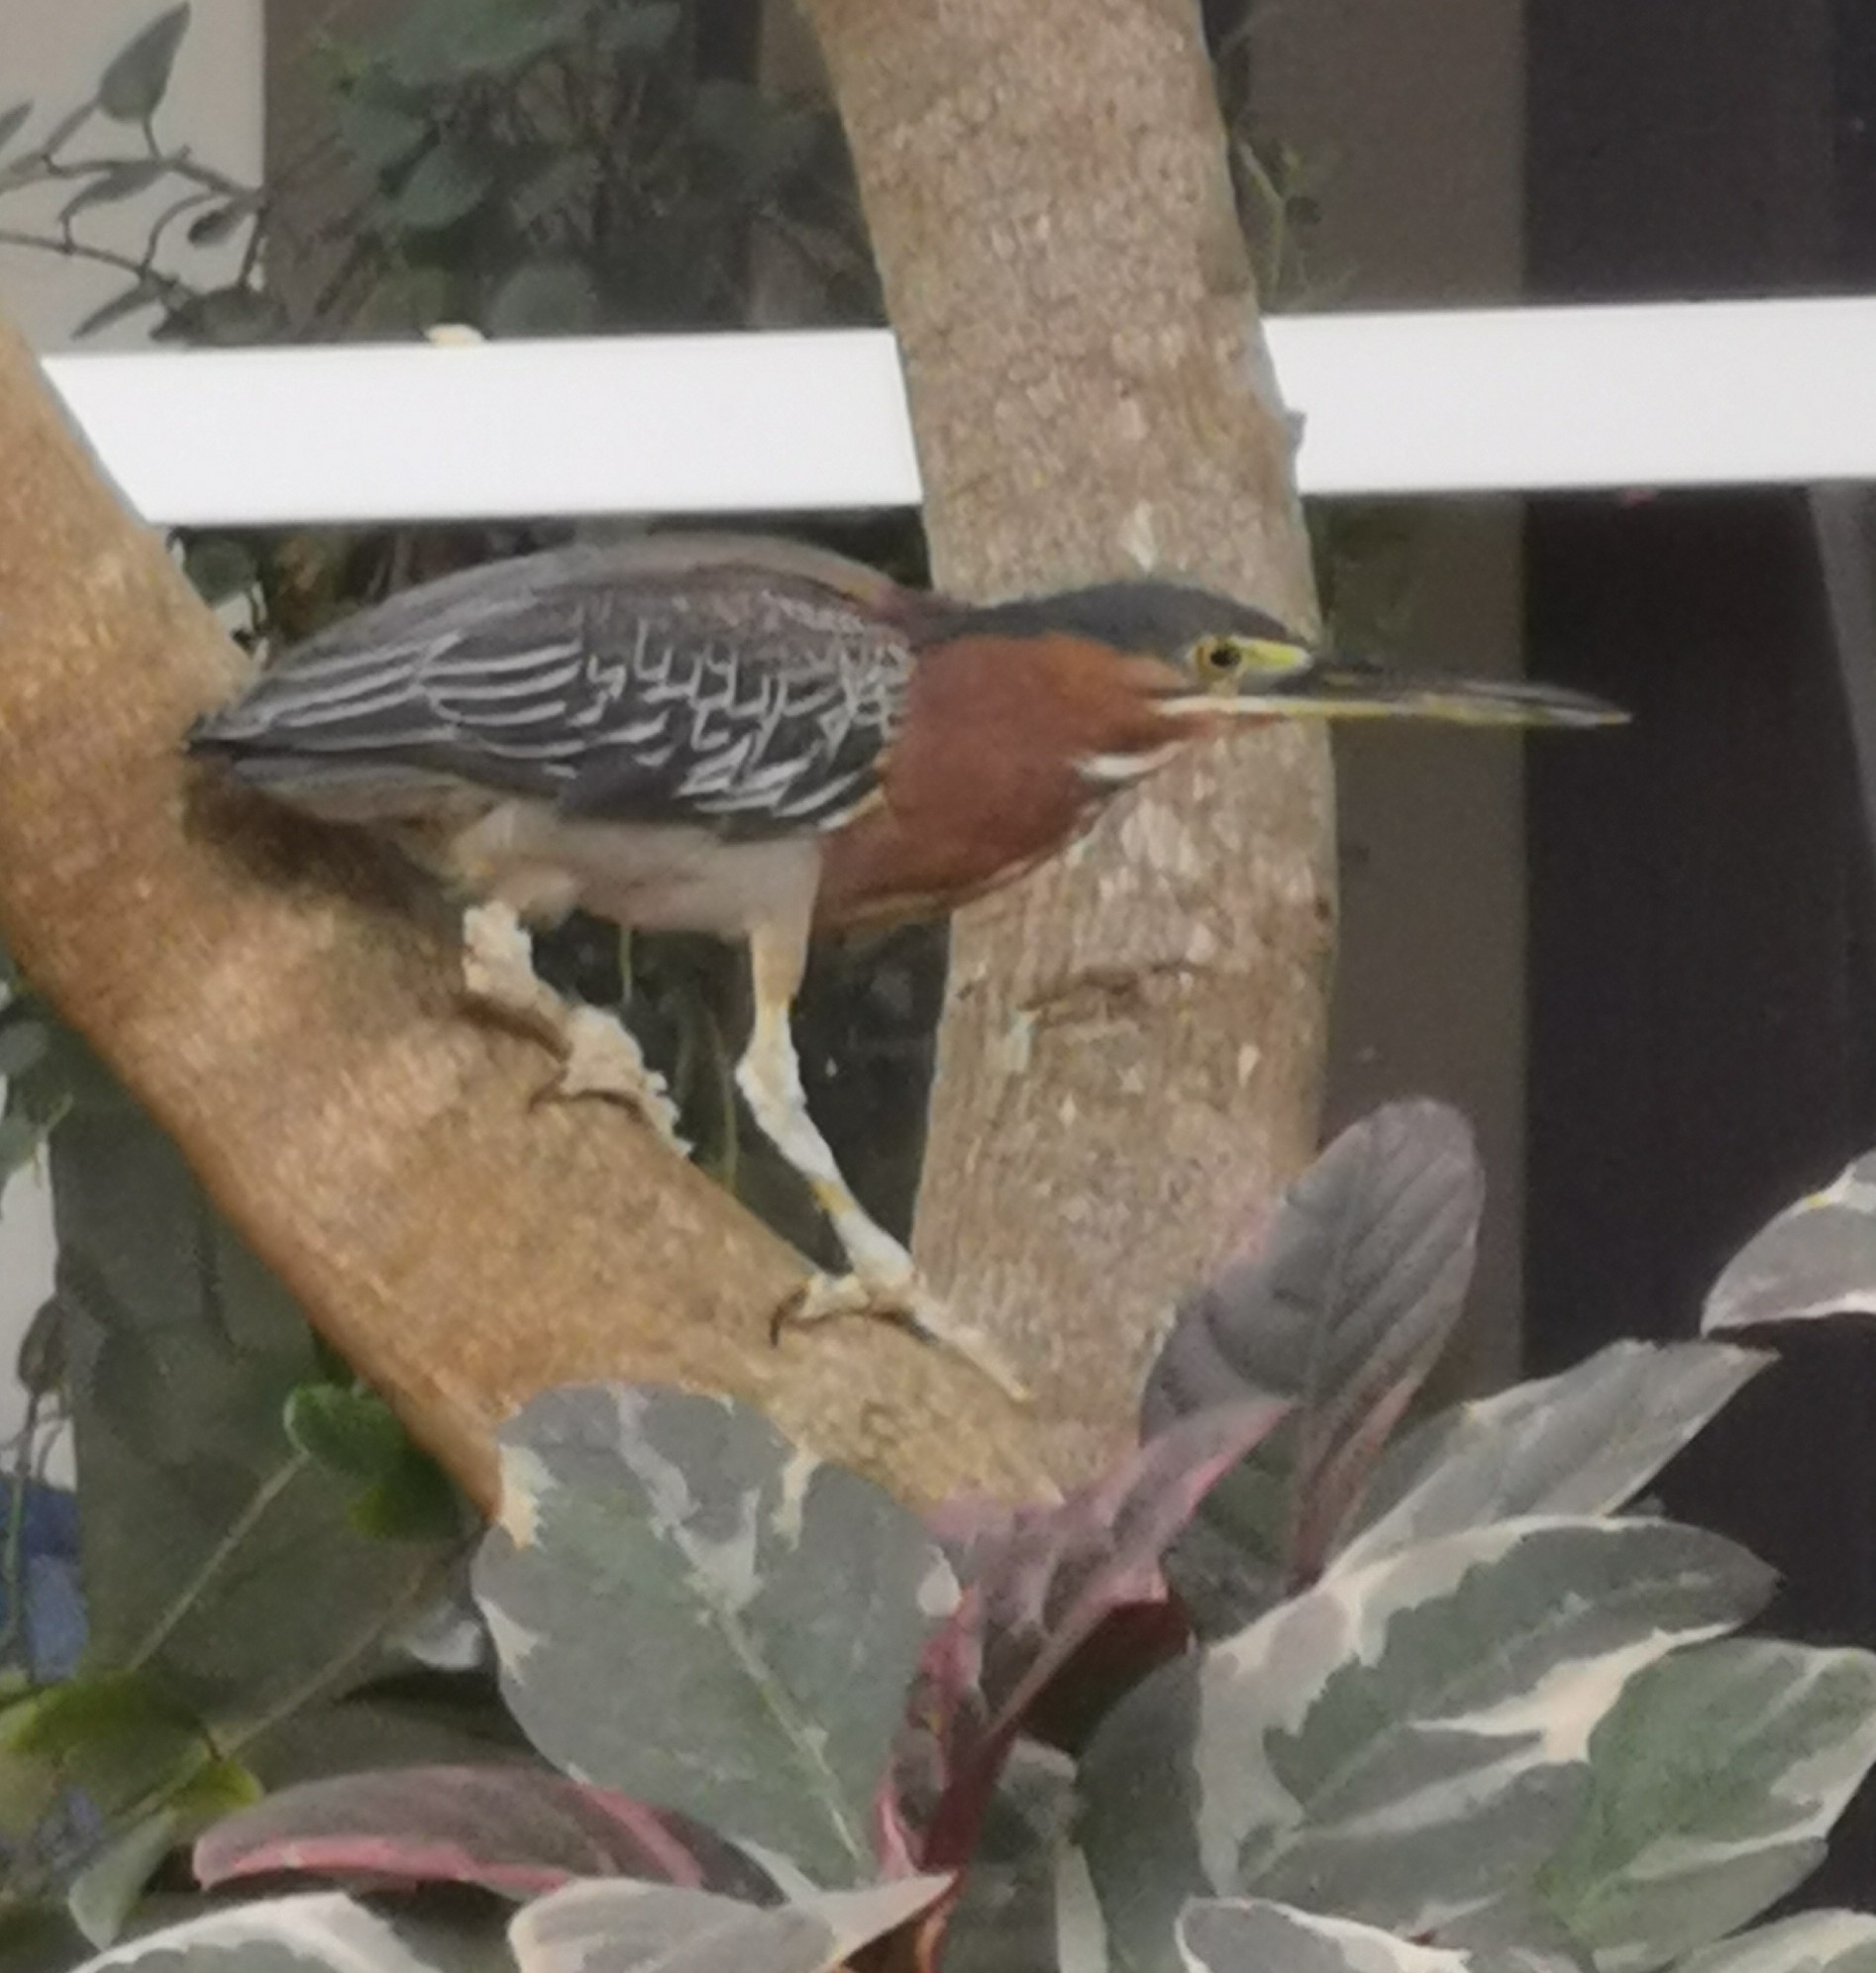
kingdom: Animalia
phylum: Chordata
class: Aves
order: Pelecaniformes
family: Ardeidae
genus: Butorides
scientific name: Butorides virescens
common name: Green heron
